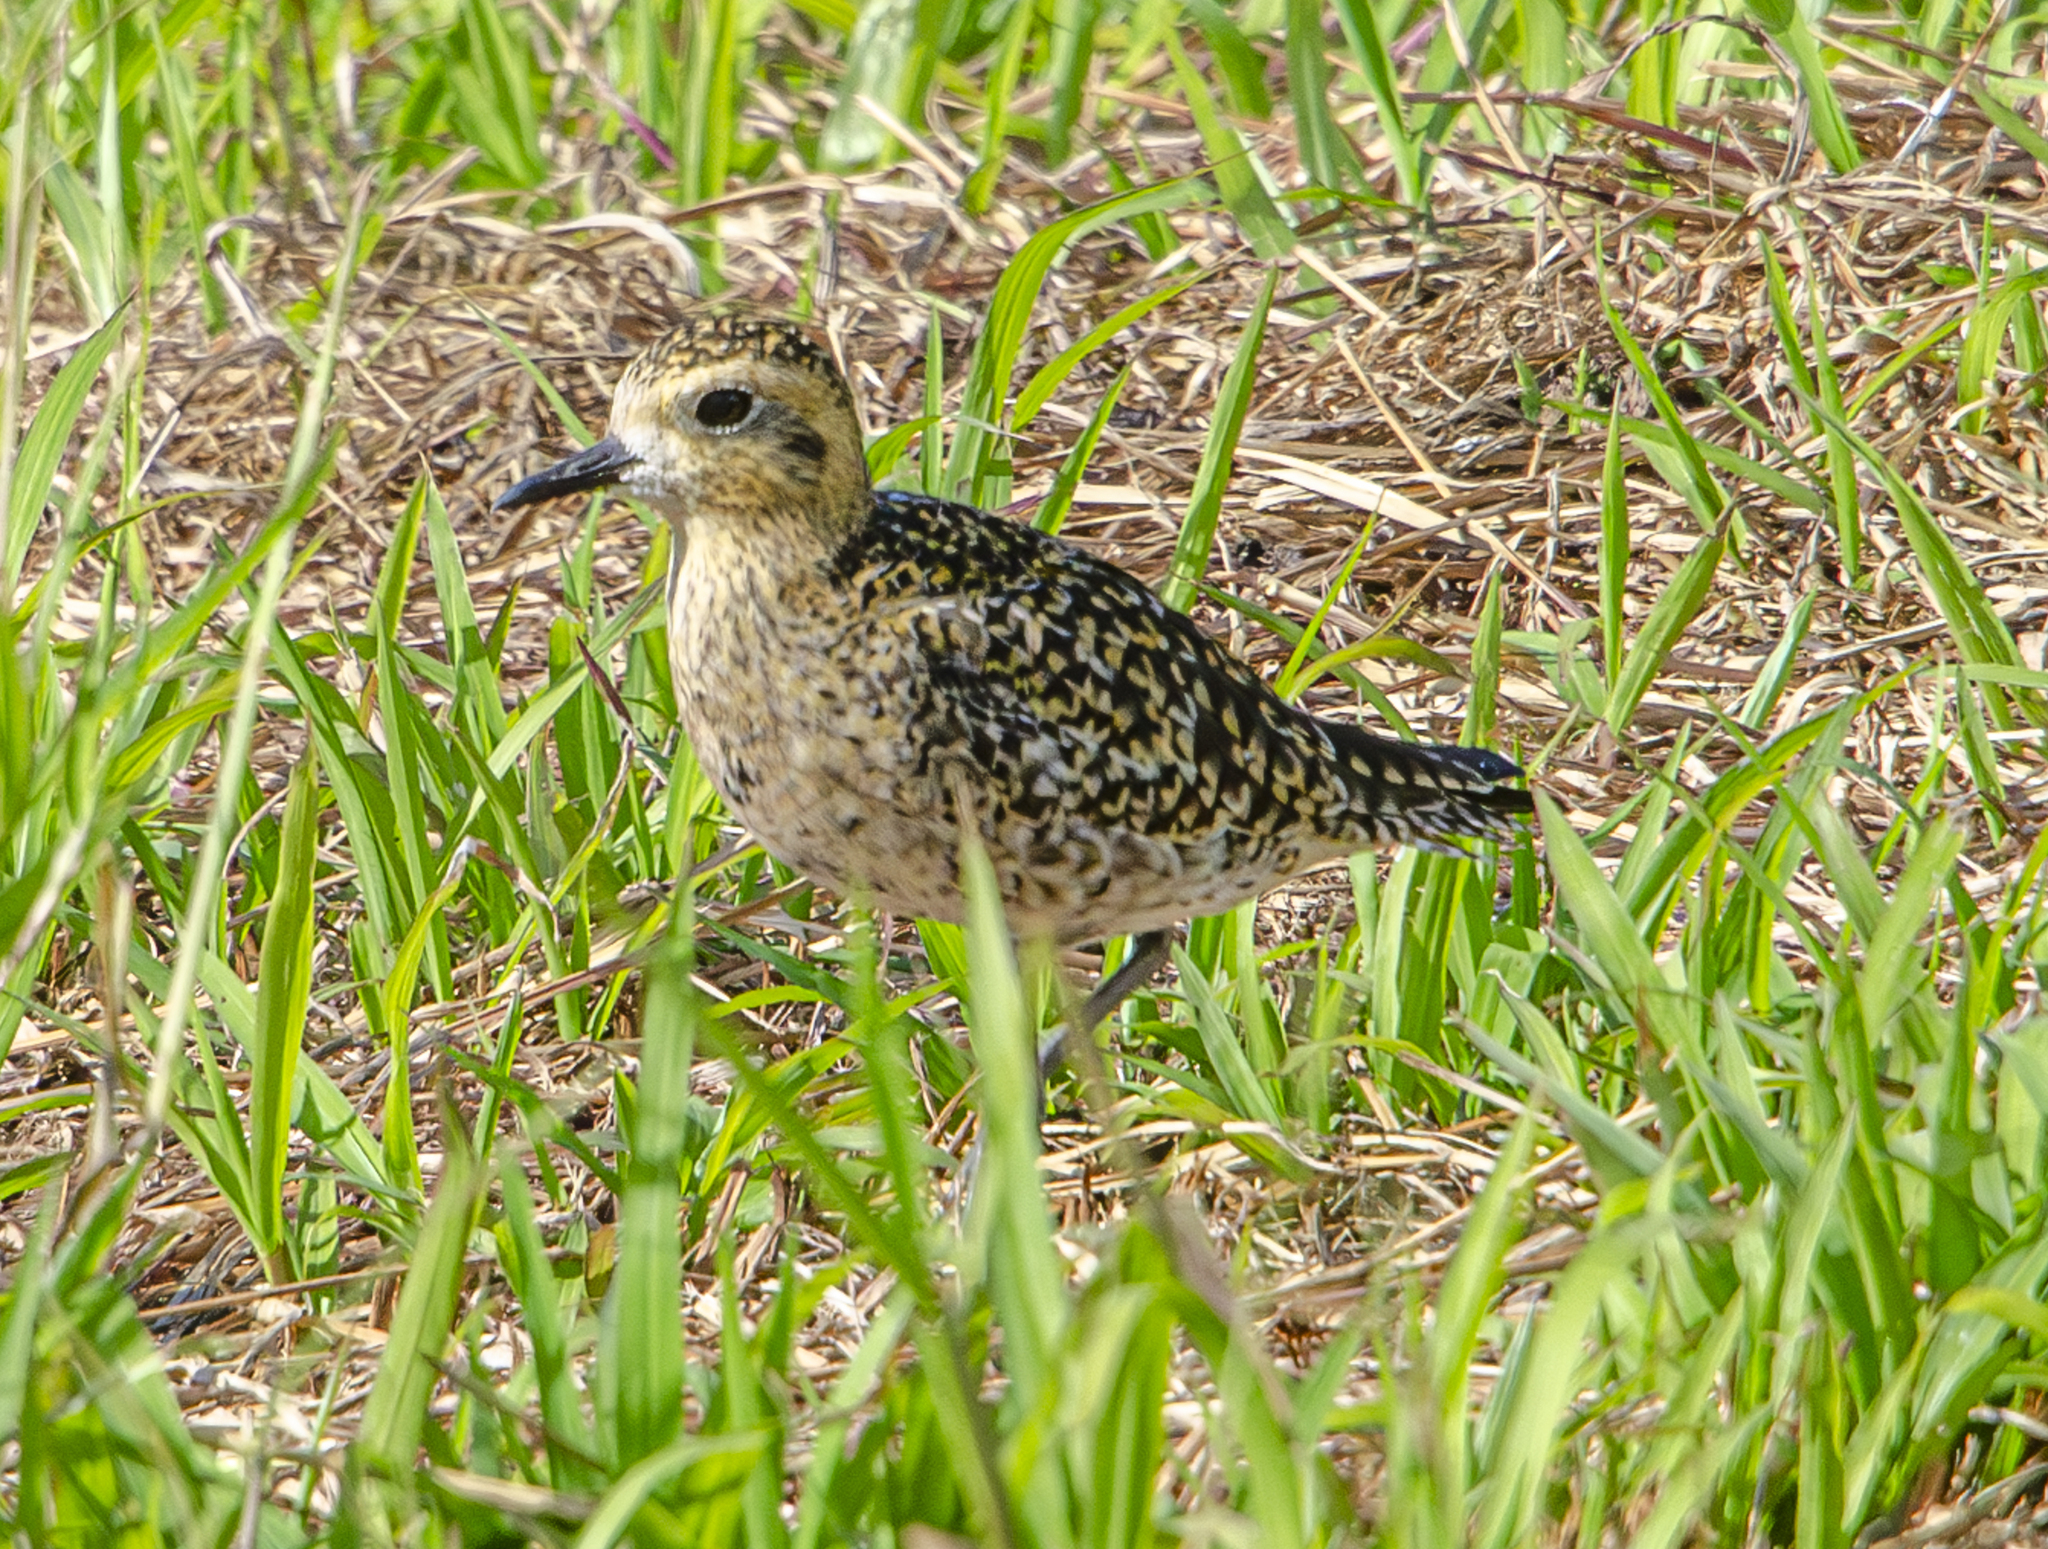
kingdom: Animalia
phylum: Chordata
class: Aves
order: Charadriiformes
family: Charadriidae
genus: Pluvialis
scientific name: Pluvialis fulva
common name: Pacific golden plover
